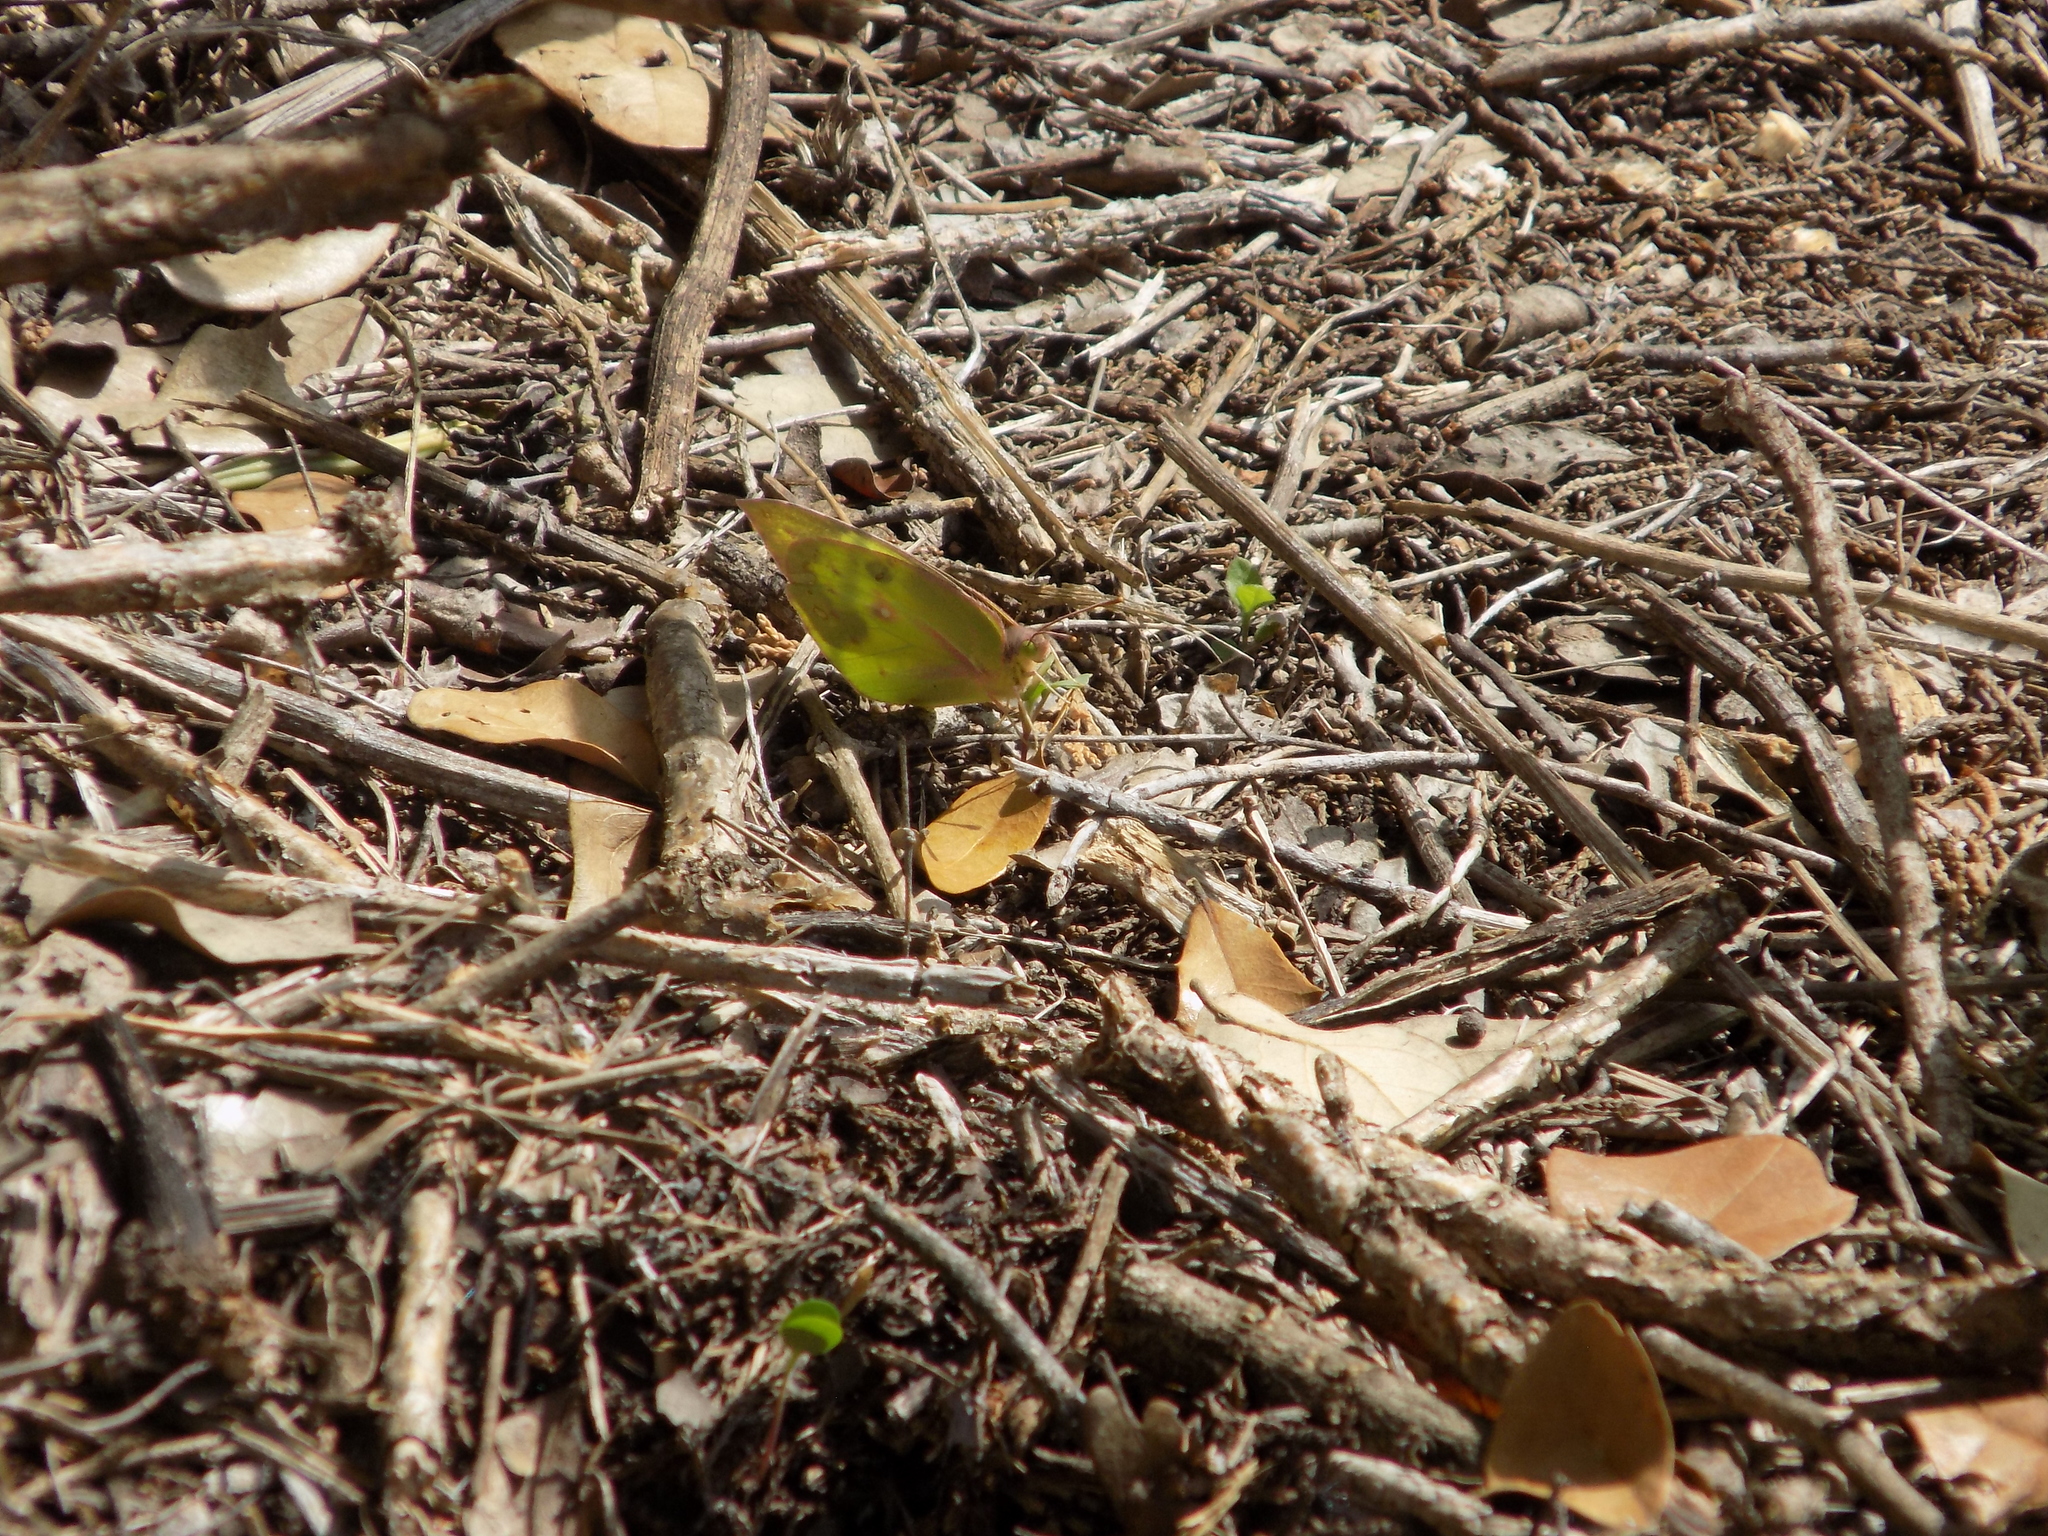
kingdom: Animalia
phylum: Arthropoda
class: Insecta
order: Lepidoptera
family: Pieridae
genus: Zerene
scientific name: Zerene cesonia
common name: Southern dogface
